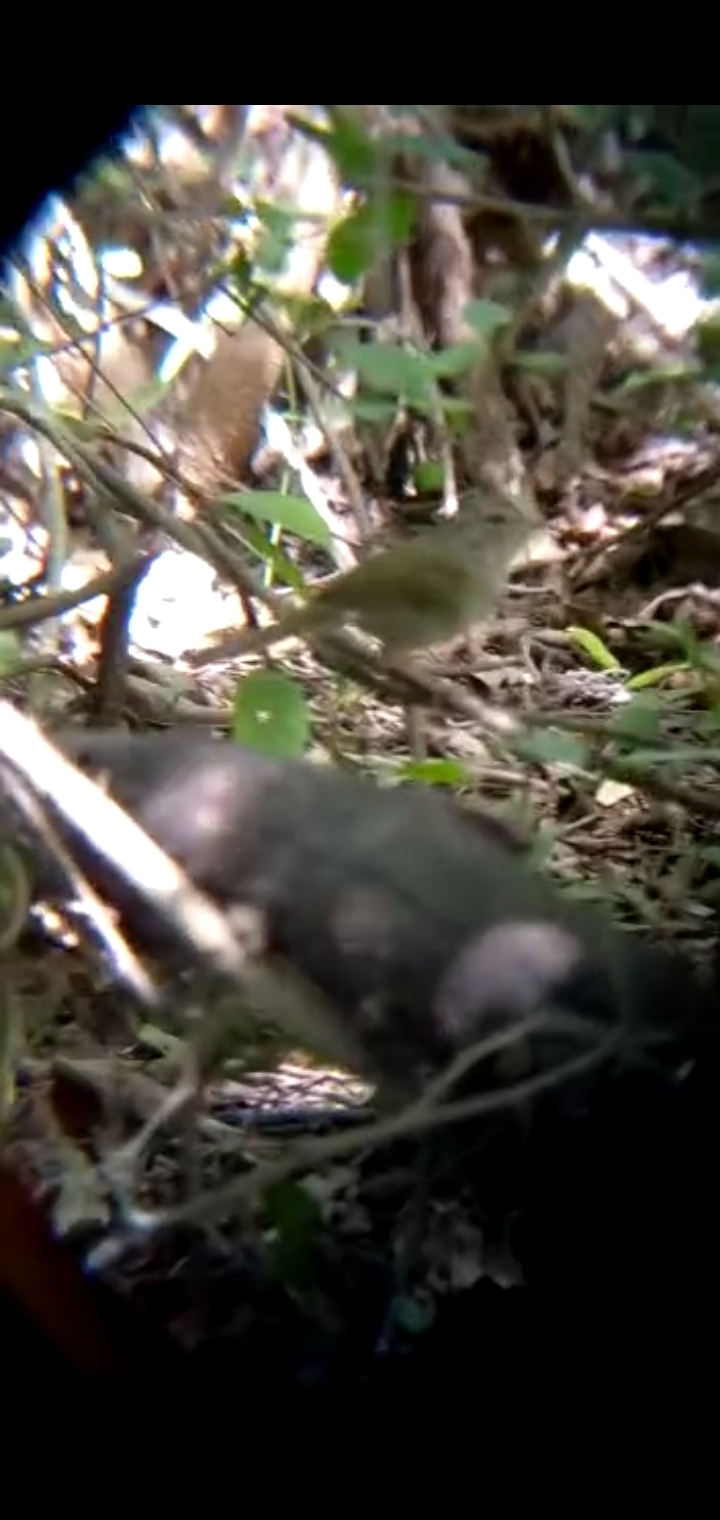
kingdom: Animalia
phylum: Chordata
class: Aves
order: Passeriformes
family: Passerellidae
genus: Arremonops
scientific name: Arremonops rufivirgatus
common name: Olive sparrow
